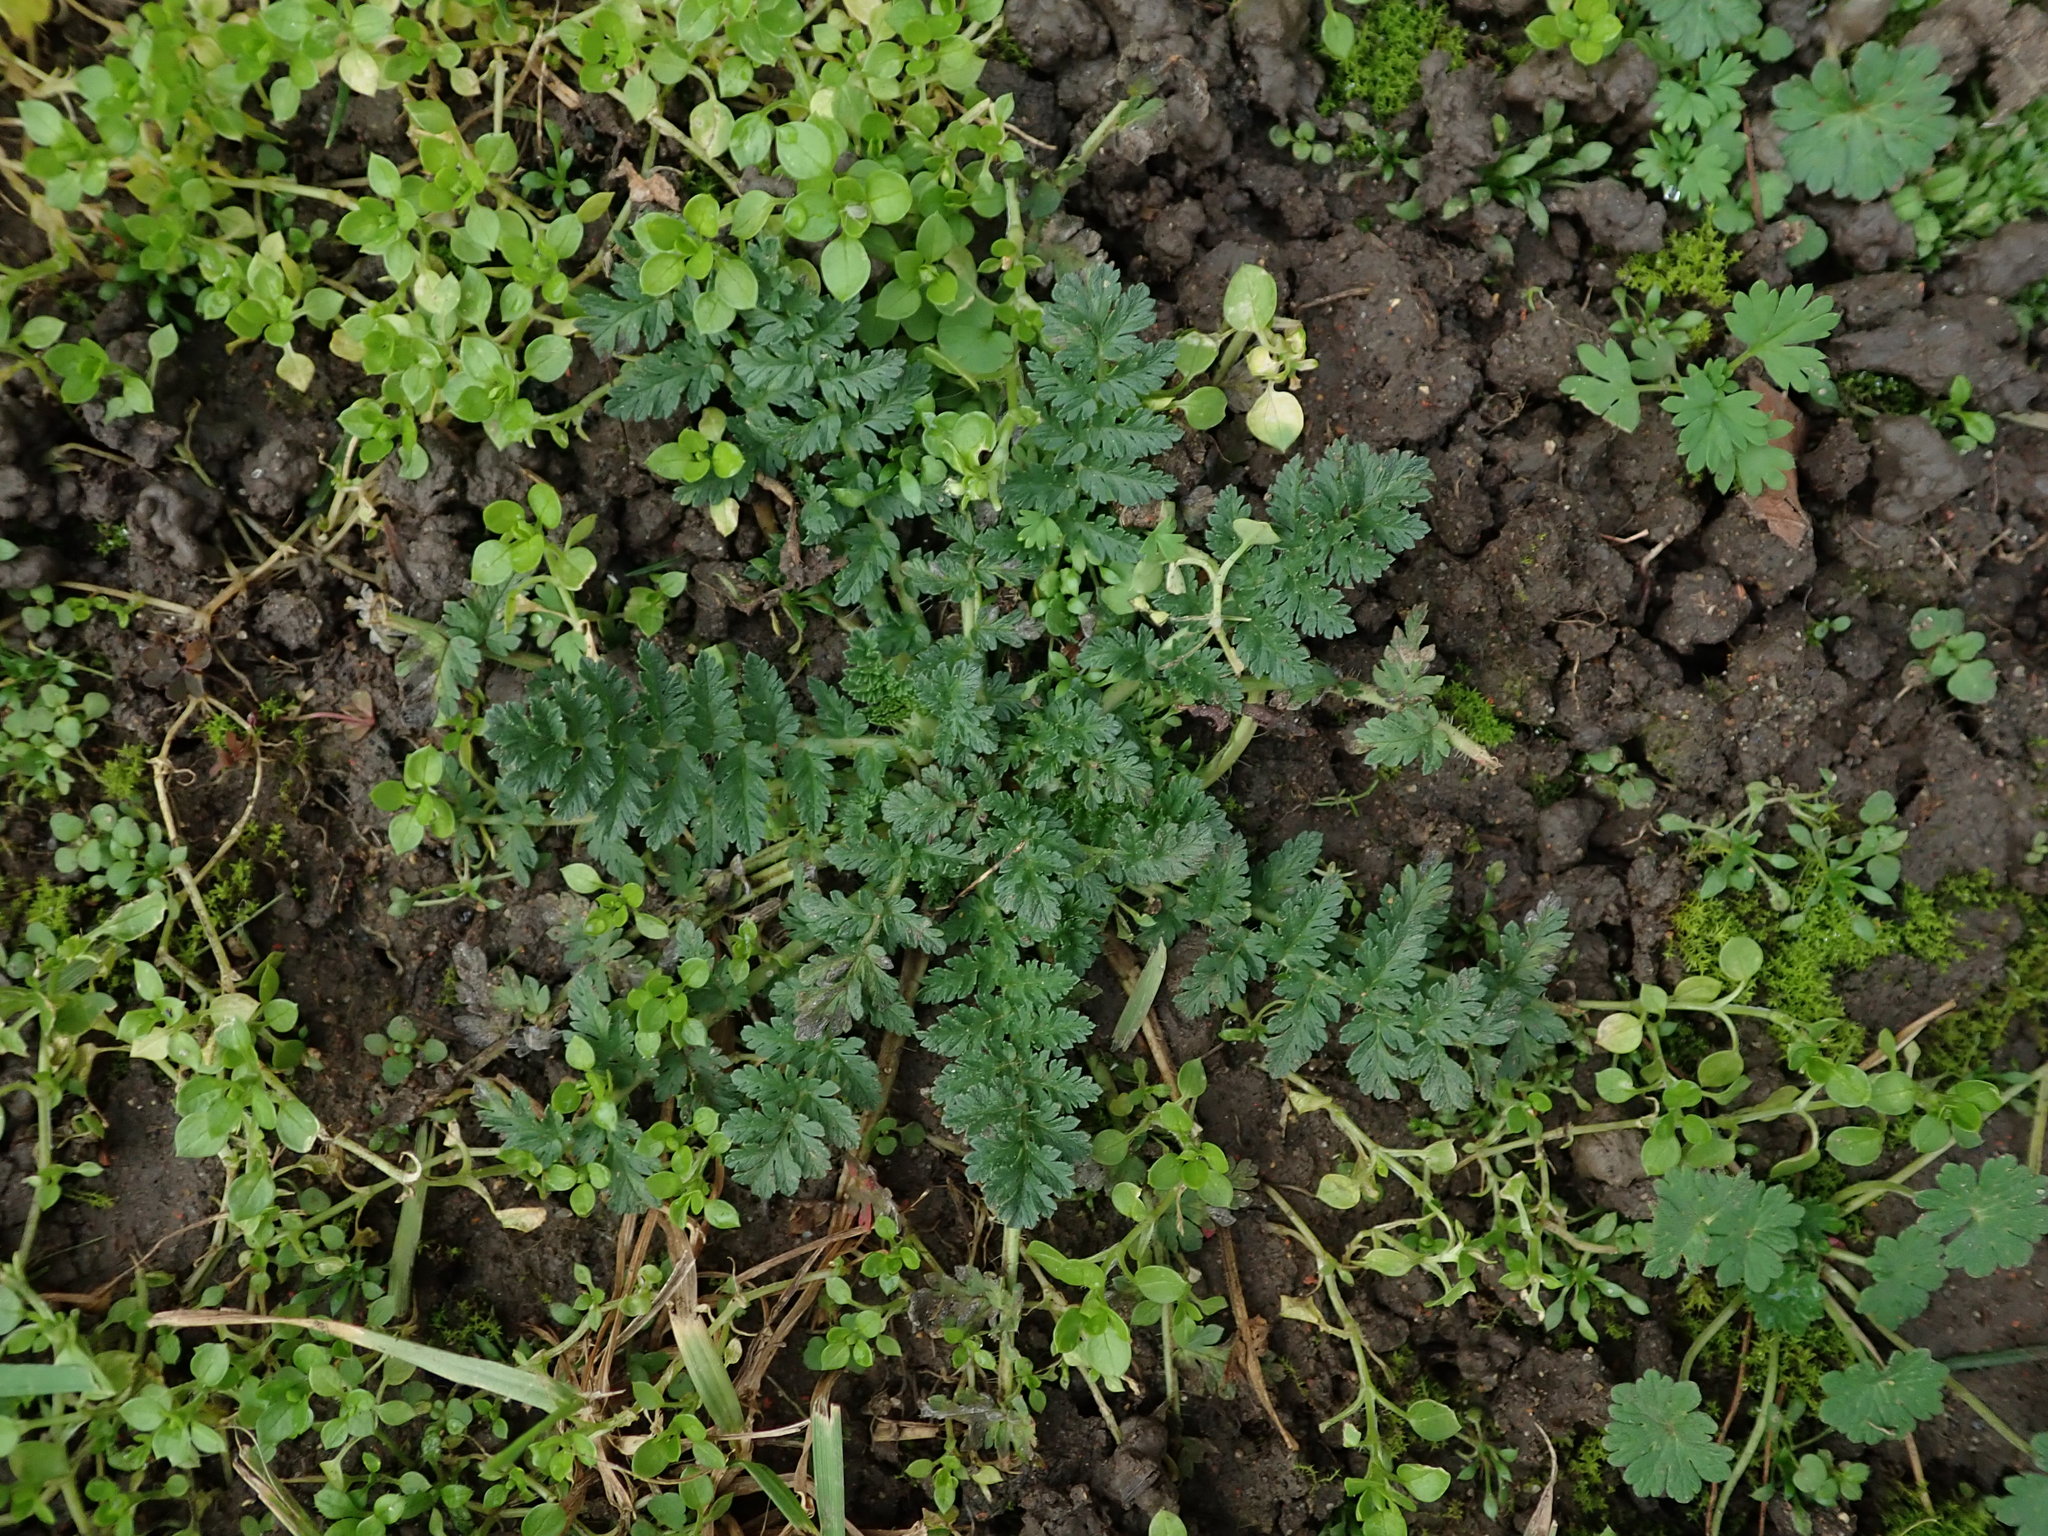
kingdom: Plantae
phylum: Tracheophyta
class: Magnoliopsida
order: Geraniales
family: Geraniaceae
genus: Erodium
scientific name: Erodium cicutarium
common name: Common stork's-bill
